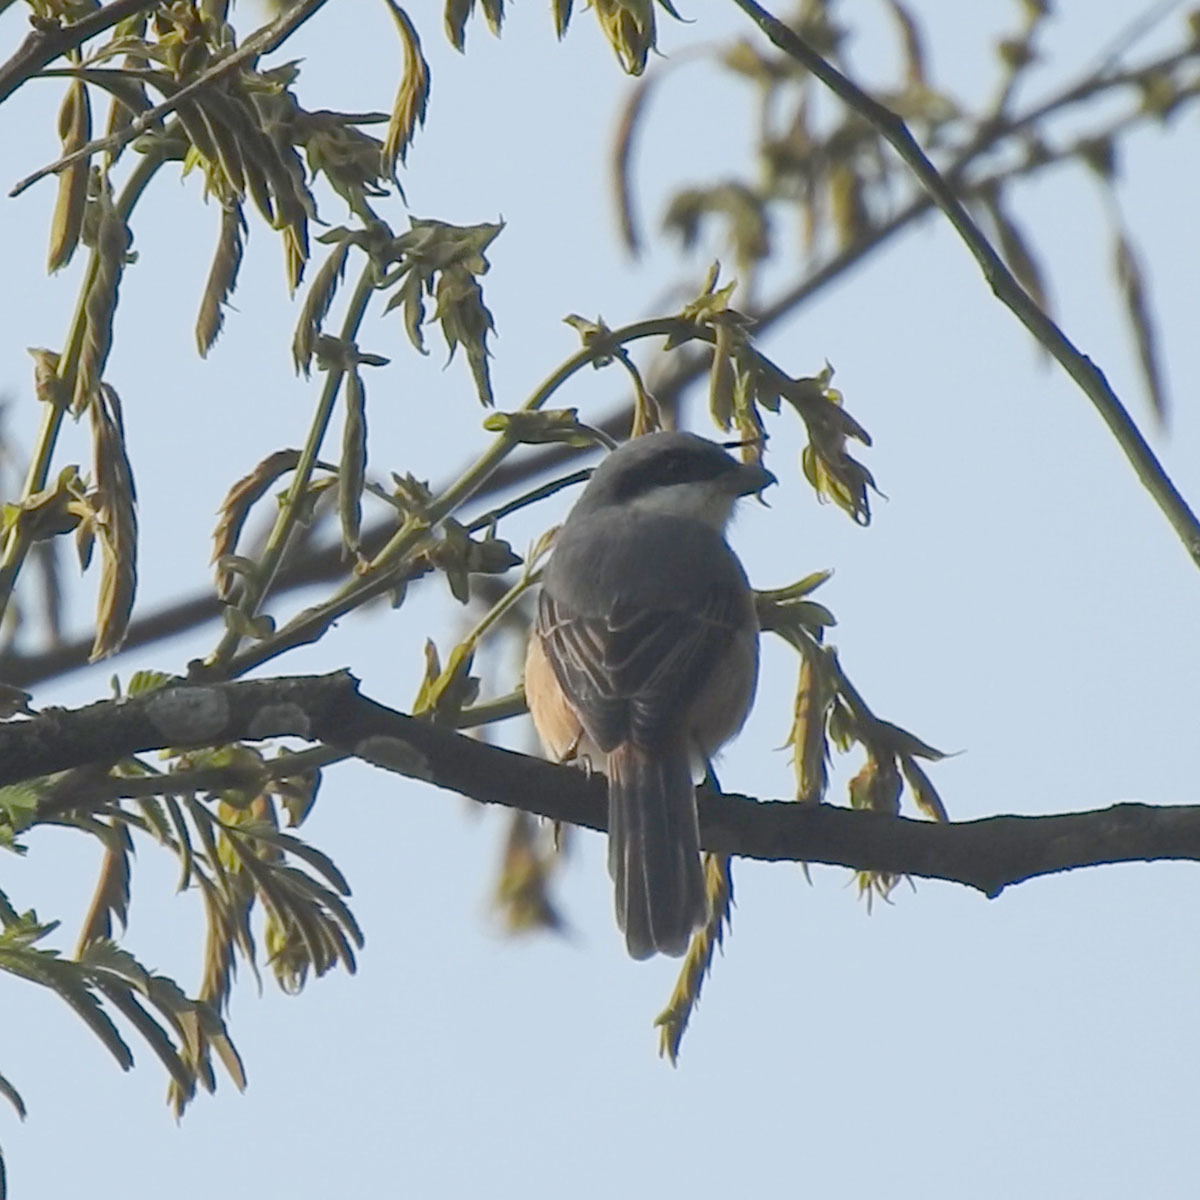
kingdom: Animalia
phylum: Chordata
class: Aves
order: Passeriformes
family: Laniidae
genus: Lanius
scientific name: Lanius tephronotus
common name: Grey-backed shrike
